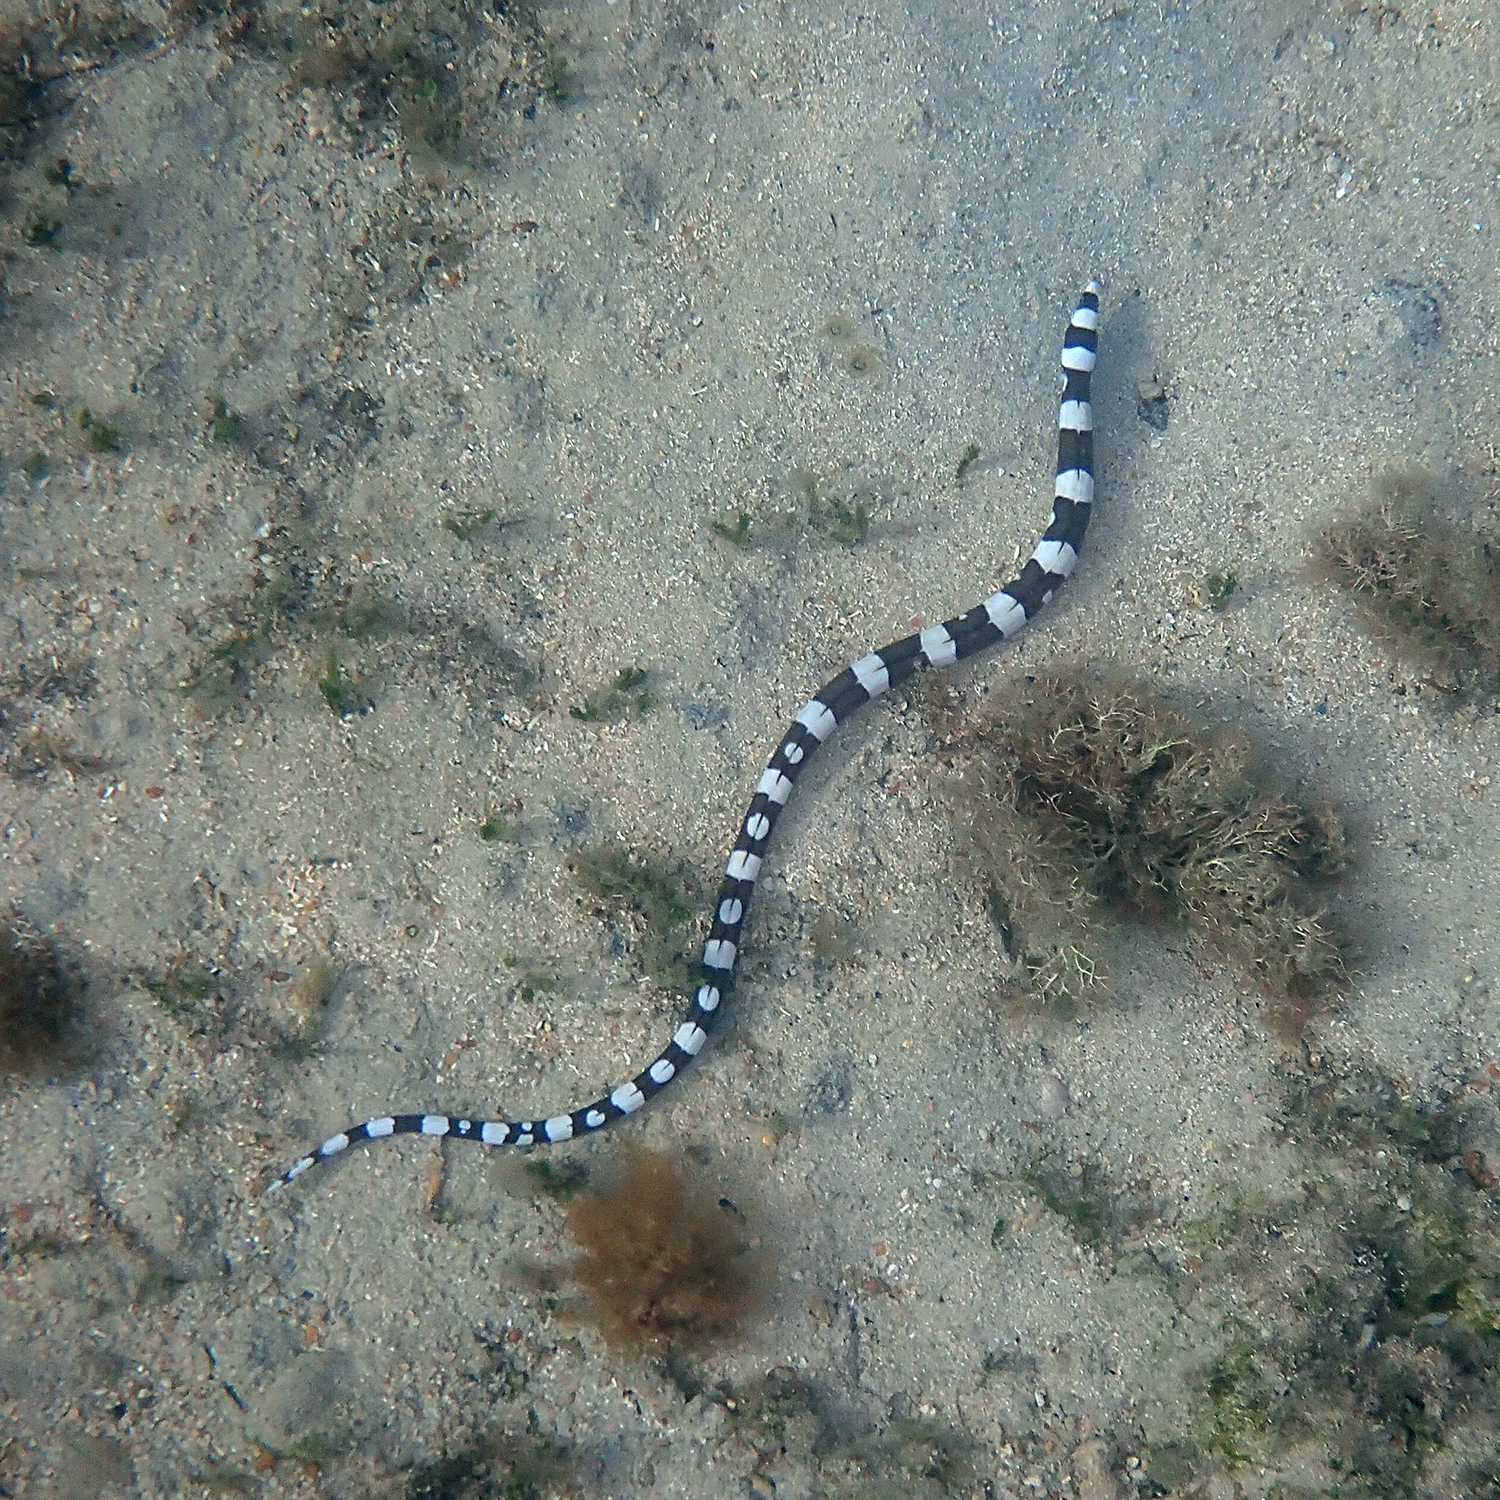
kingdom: Animalia
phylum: Chordata
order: Anguilliformes
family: Ophichthidae
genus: Leiuranus
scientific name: Leiuranus versicolor
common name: Convict snake eel
